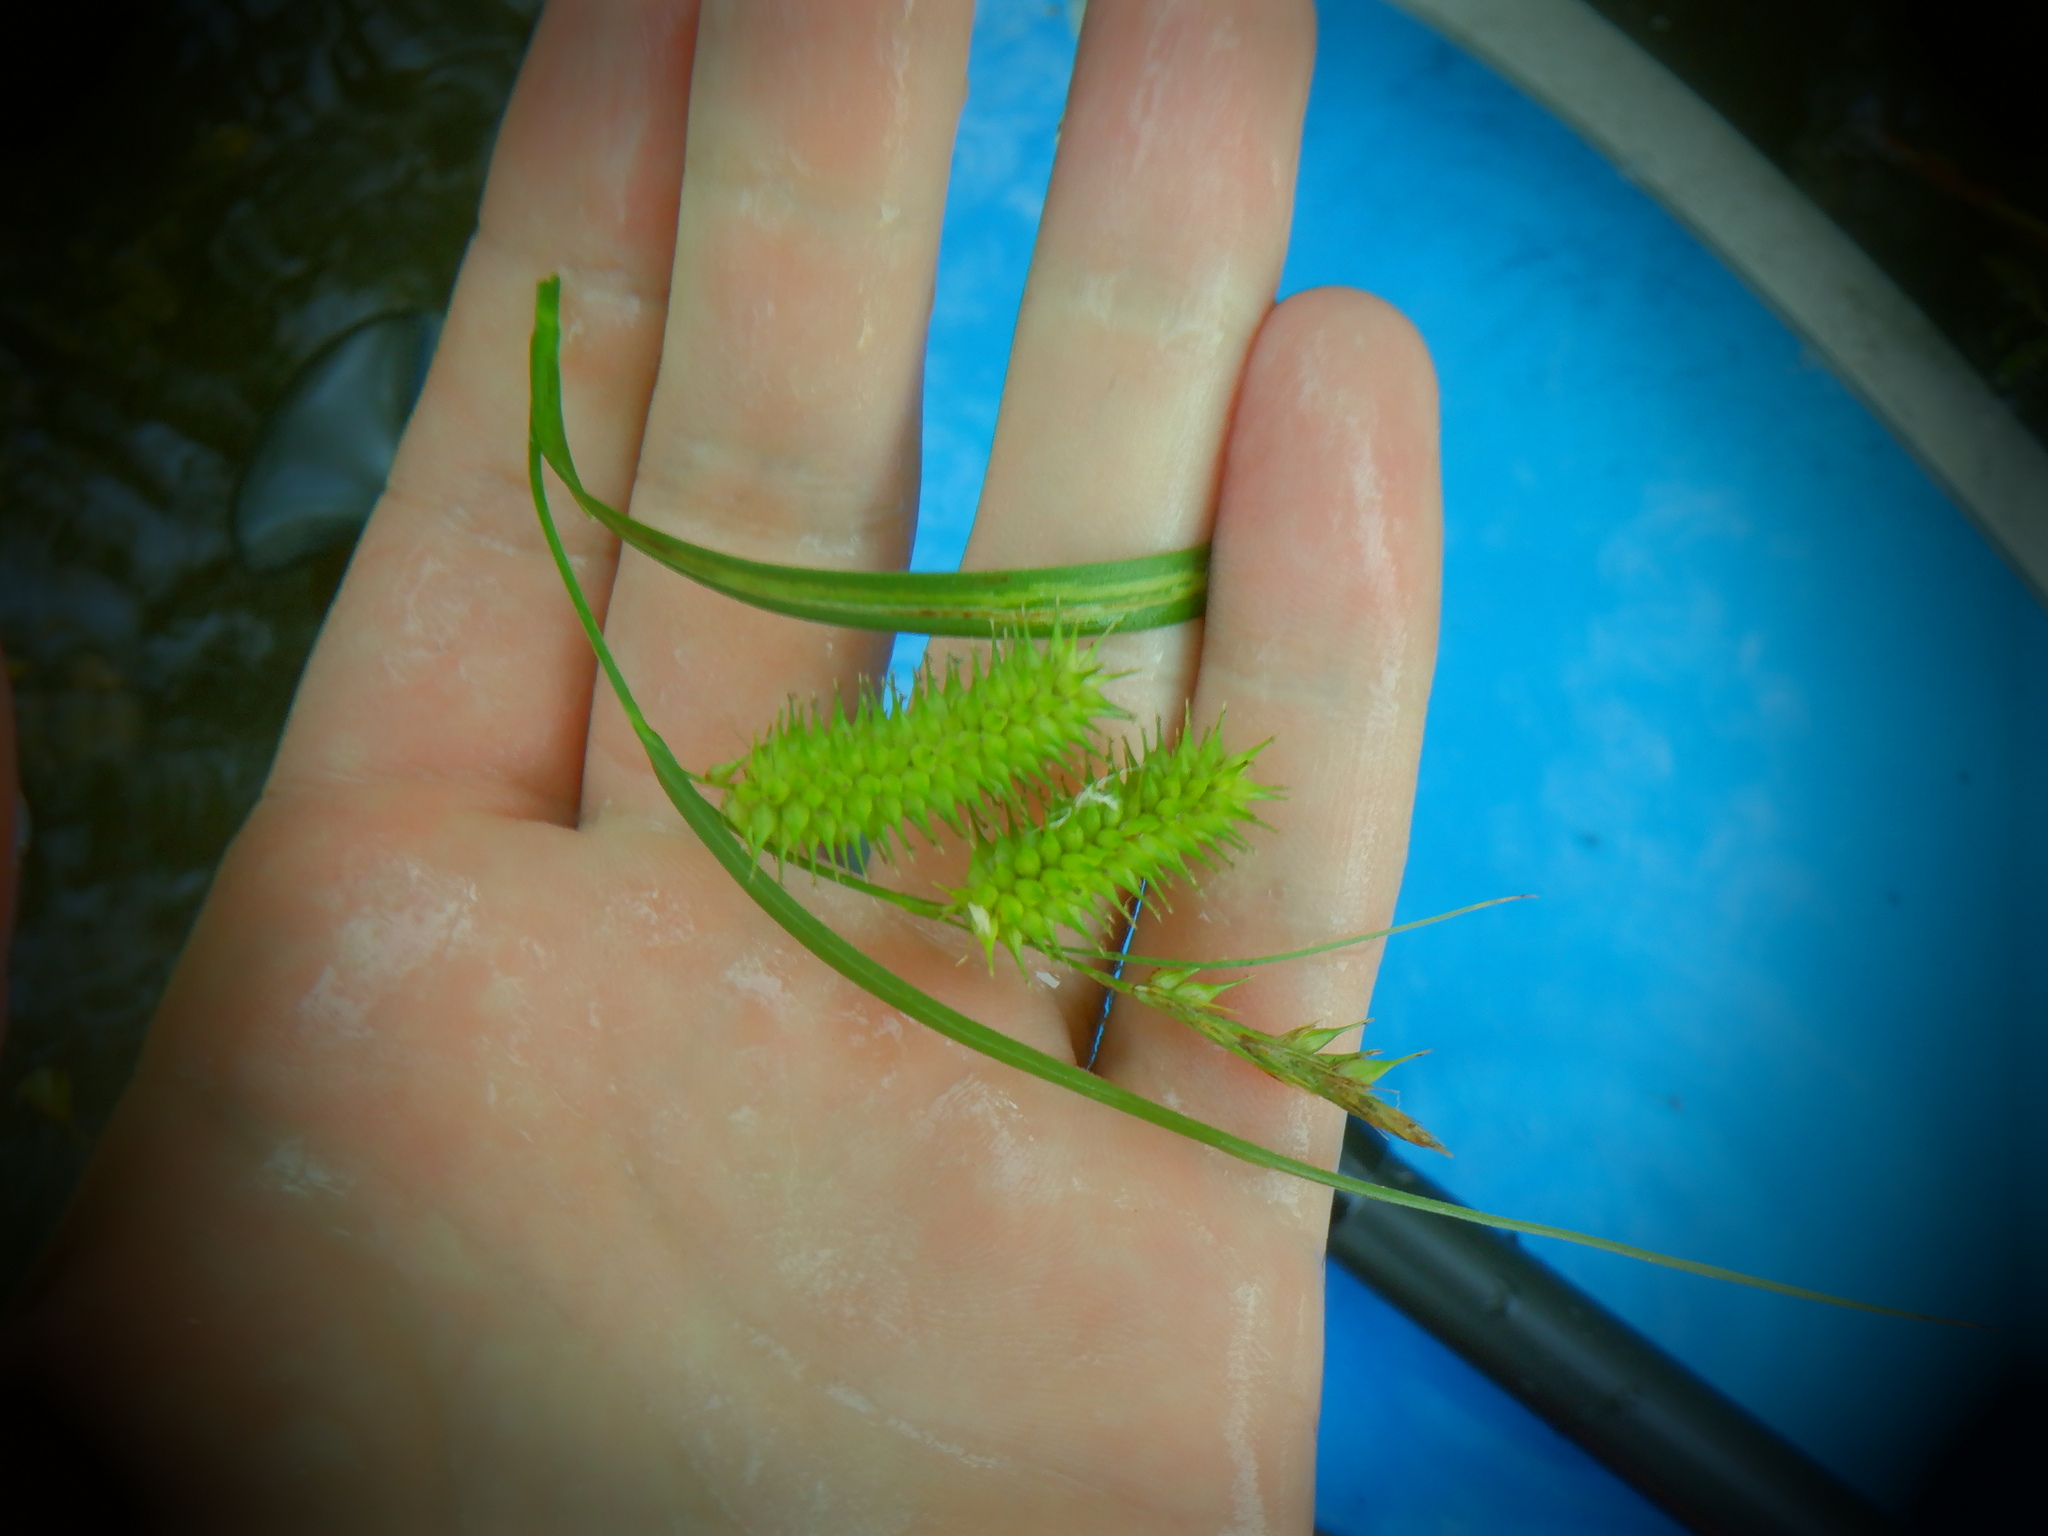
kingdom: Plantae
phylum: Tracheophyta
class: Liliopsida
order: Poales
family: Cyperaceae
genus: Carex
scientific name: Carex hystericina
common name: Bottlebrush sedge
